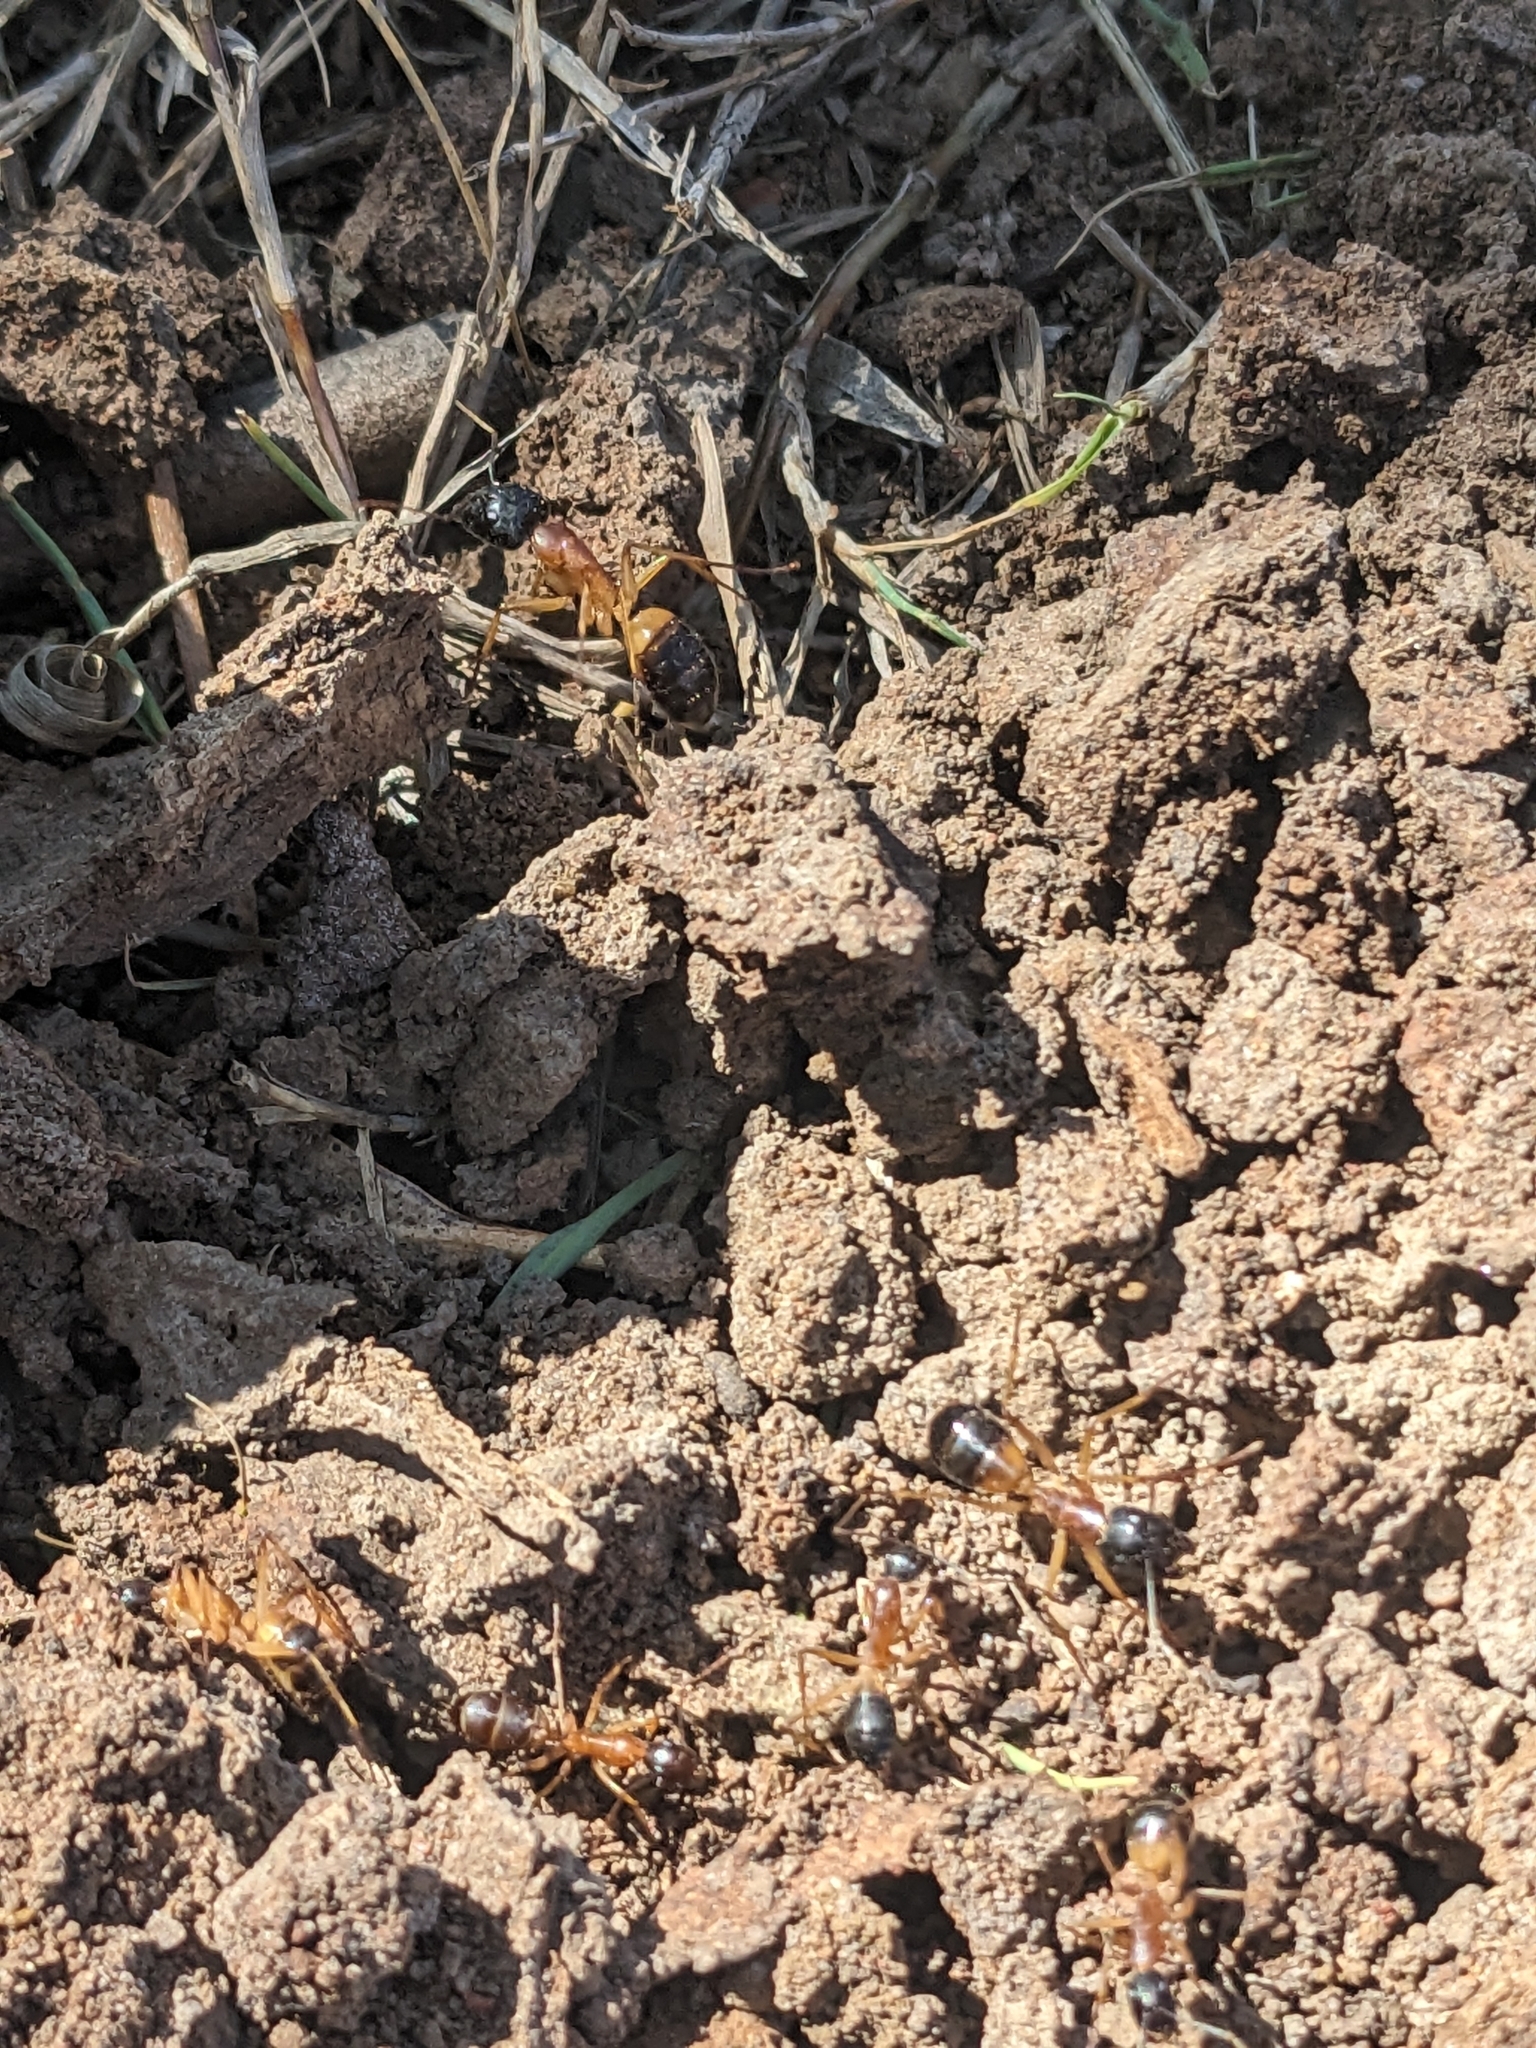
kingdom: Animalia
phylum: Arthropoda
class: Insecta
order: Hymenoptera
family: Formicidae
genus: Camponotus
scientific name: Camponotus consobrinus
